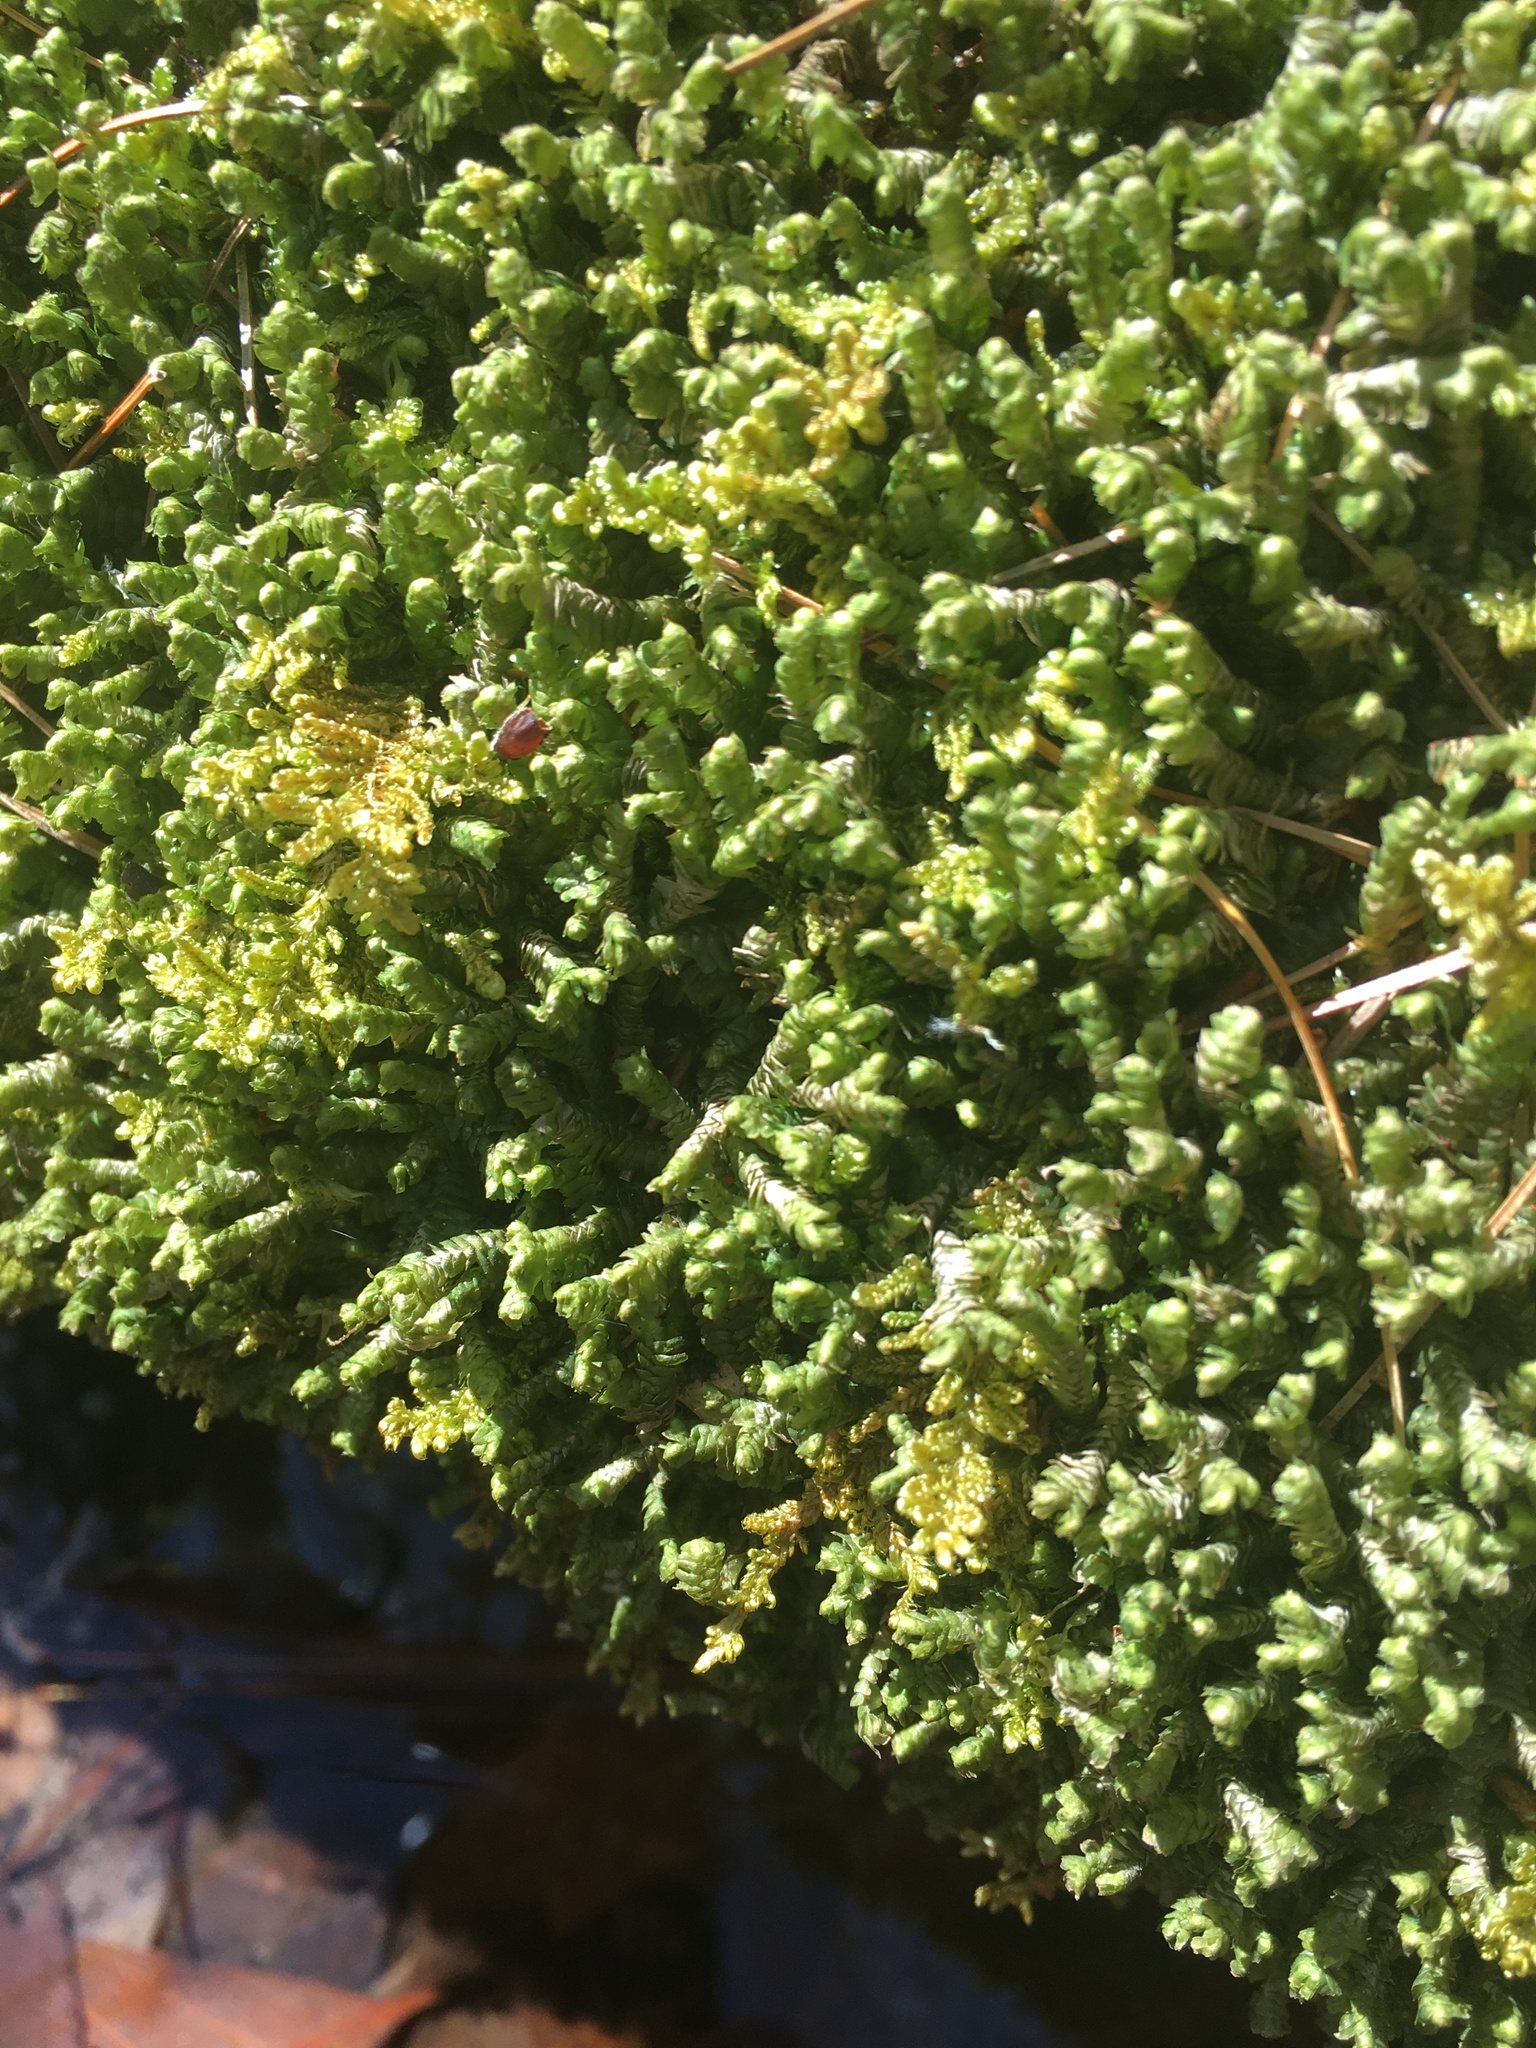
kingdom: Plantae
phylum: Marchantiophyta
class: Jungermanniopsida
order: Jungermanniales
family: Lepidoziaceae
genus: Bazzania
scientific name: Bazzania trilobata
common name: Three-lobed whipwort
